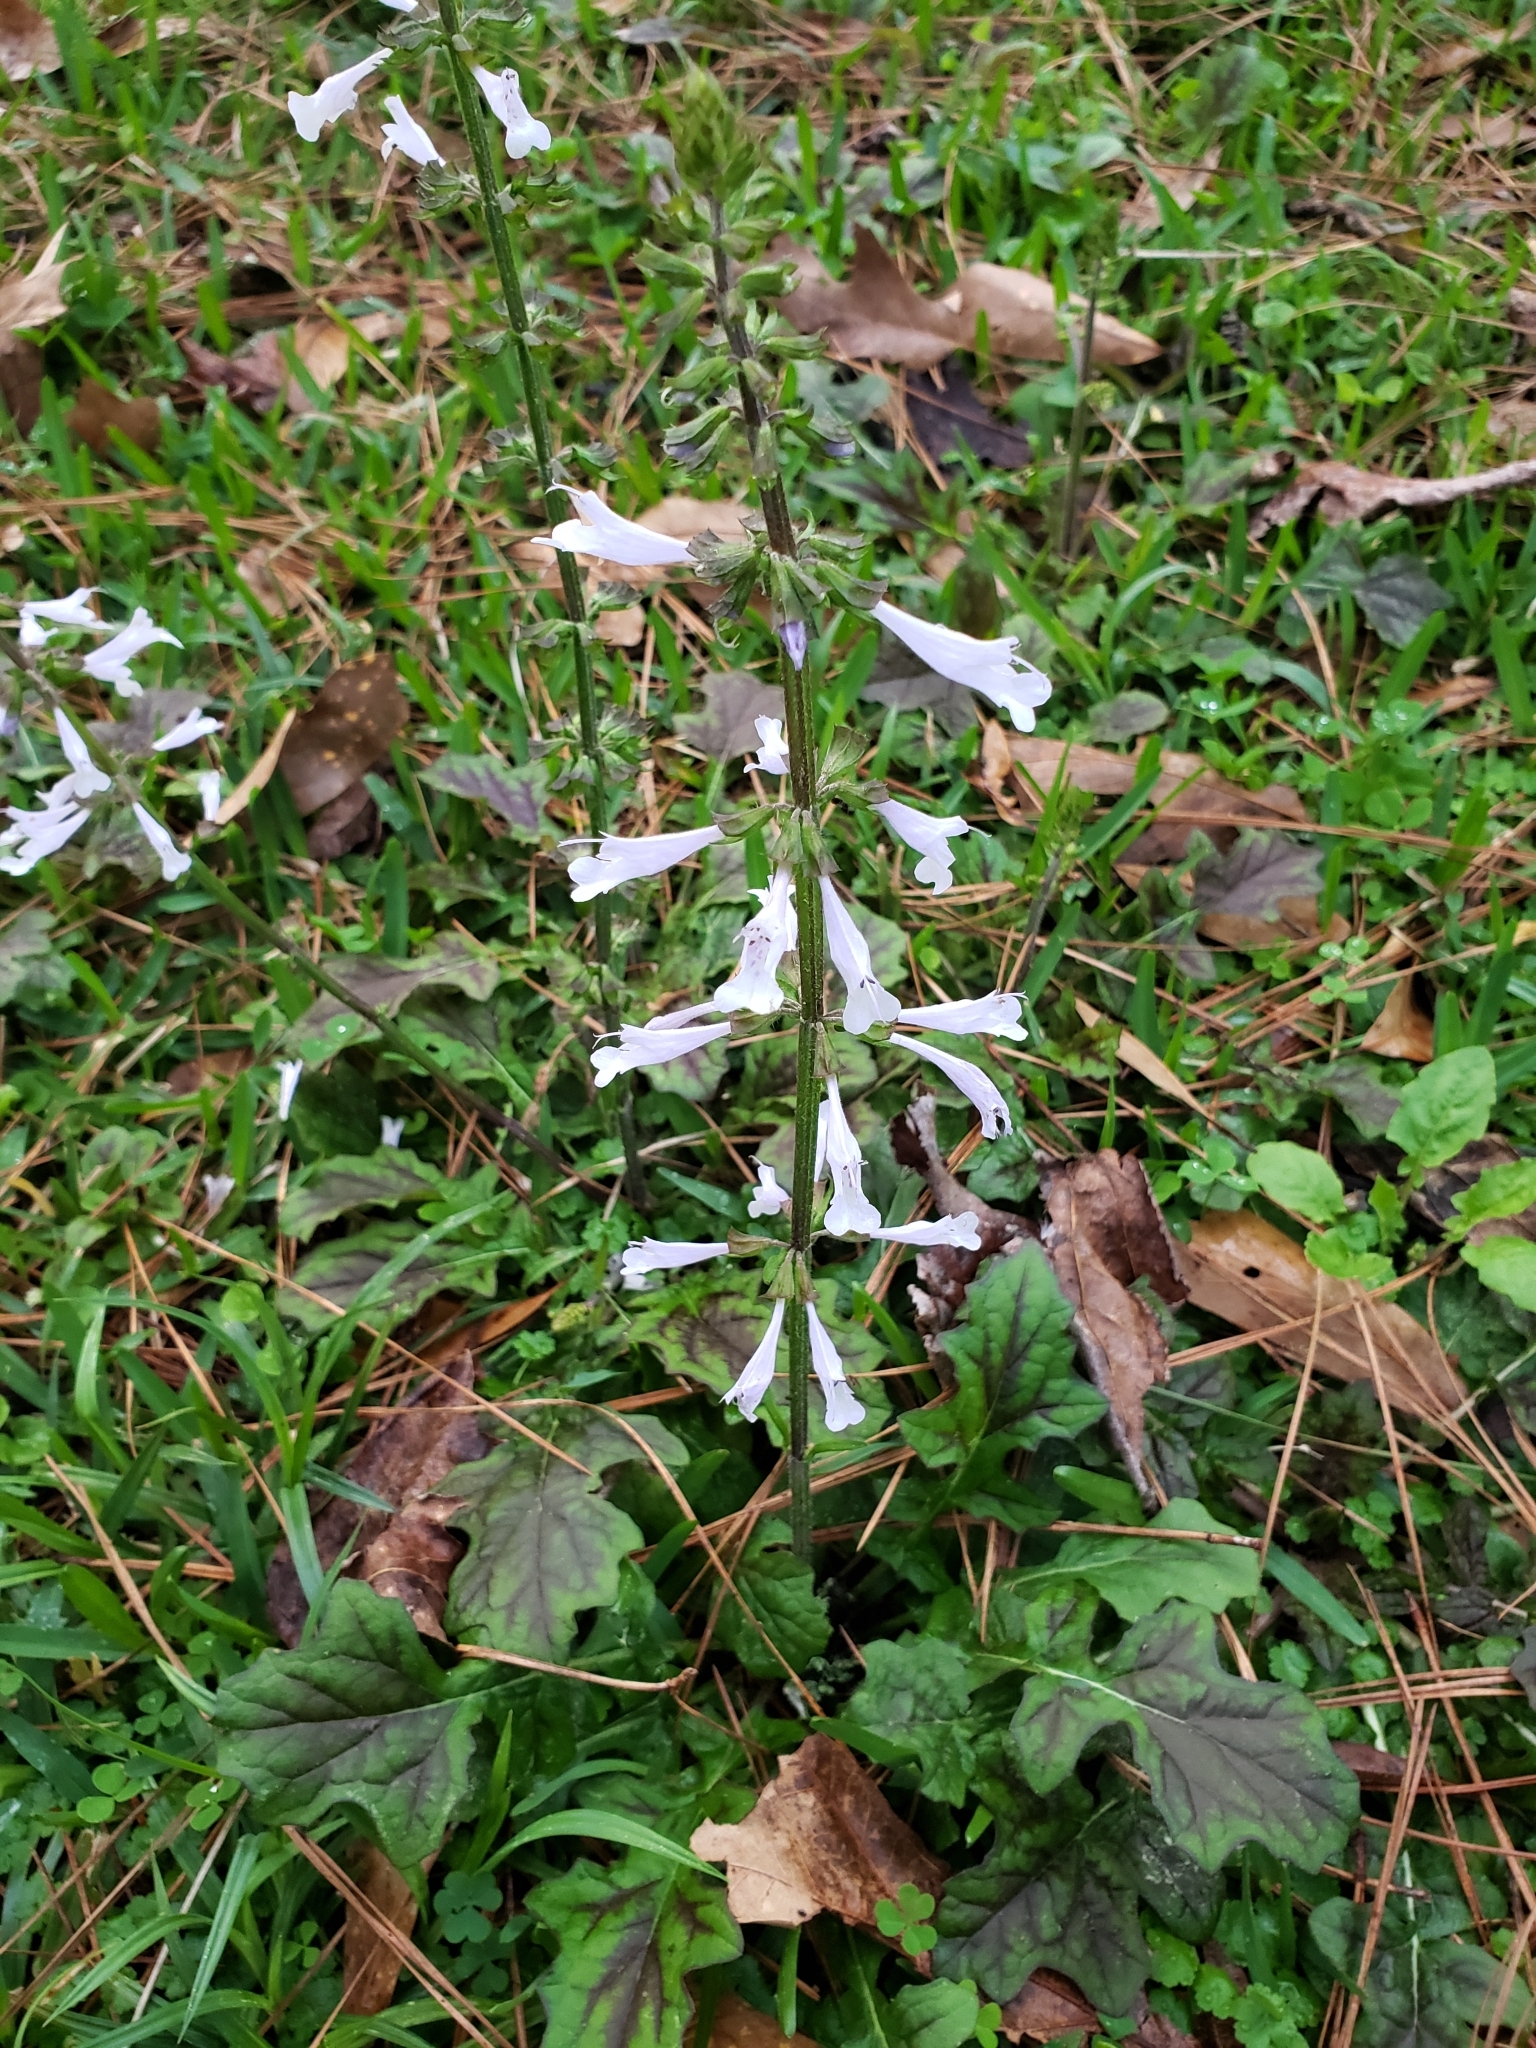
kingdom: Plantae
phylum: Tracheophyta
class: Magnoliopsida
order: Lamiales
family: Lamiaceae
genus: Salvia
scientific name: Salvia lyrata
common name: Cancerweed
